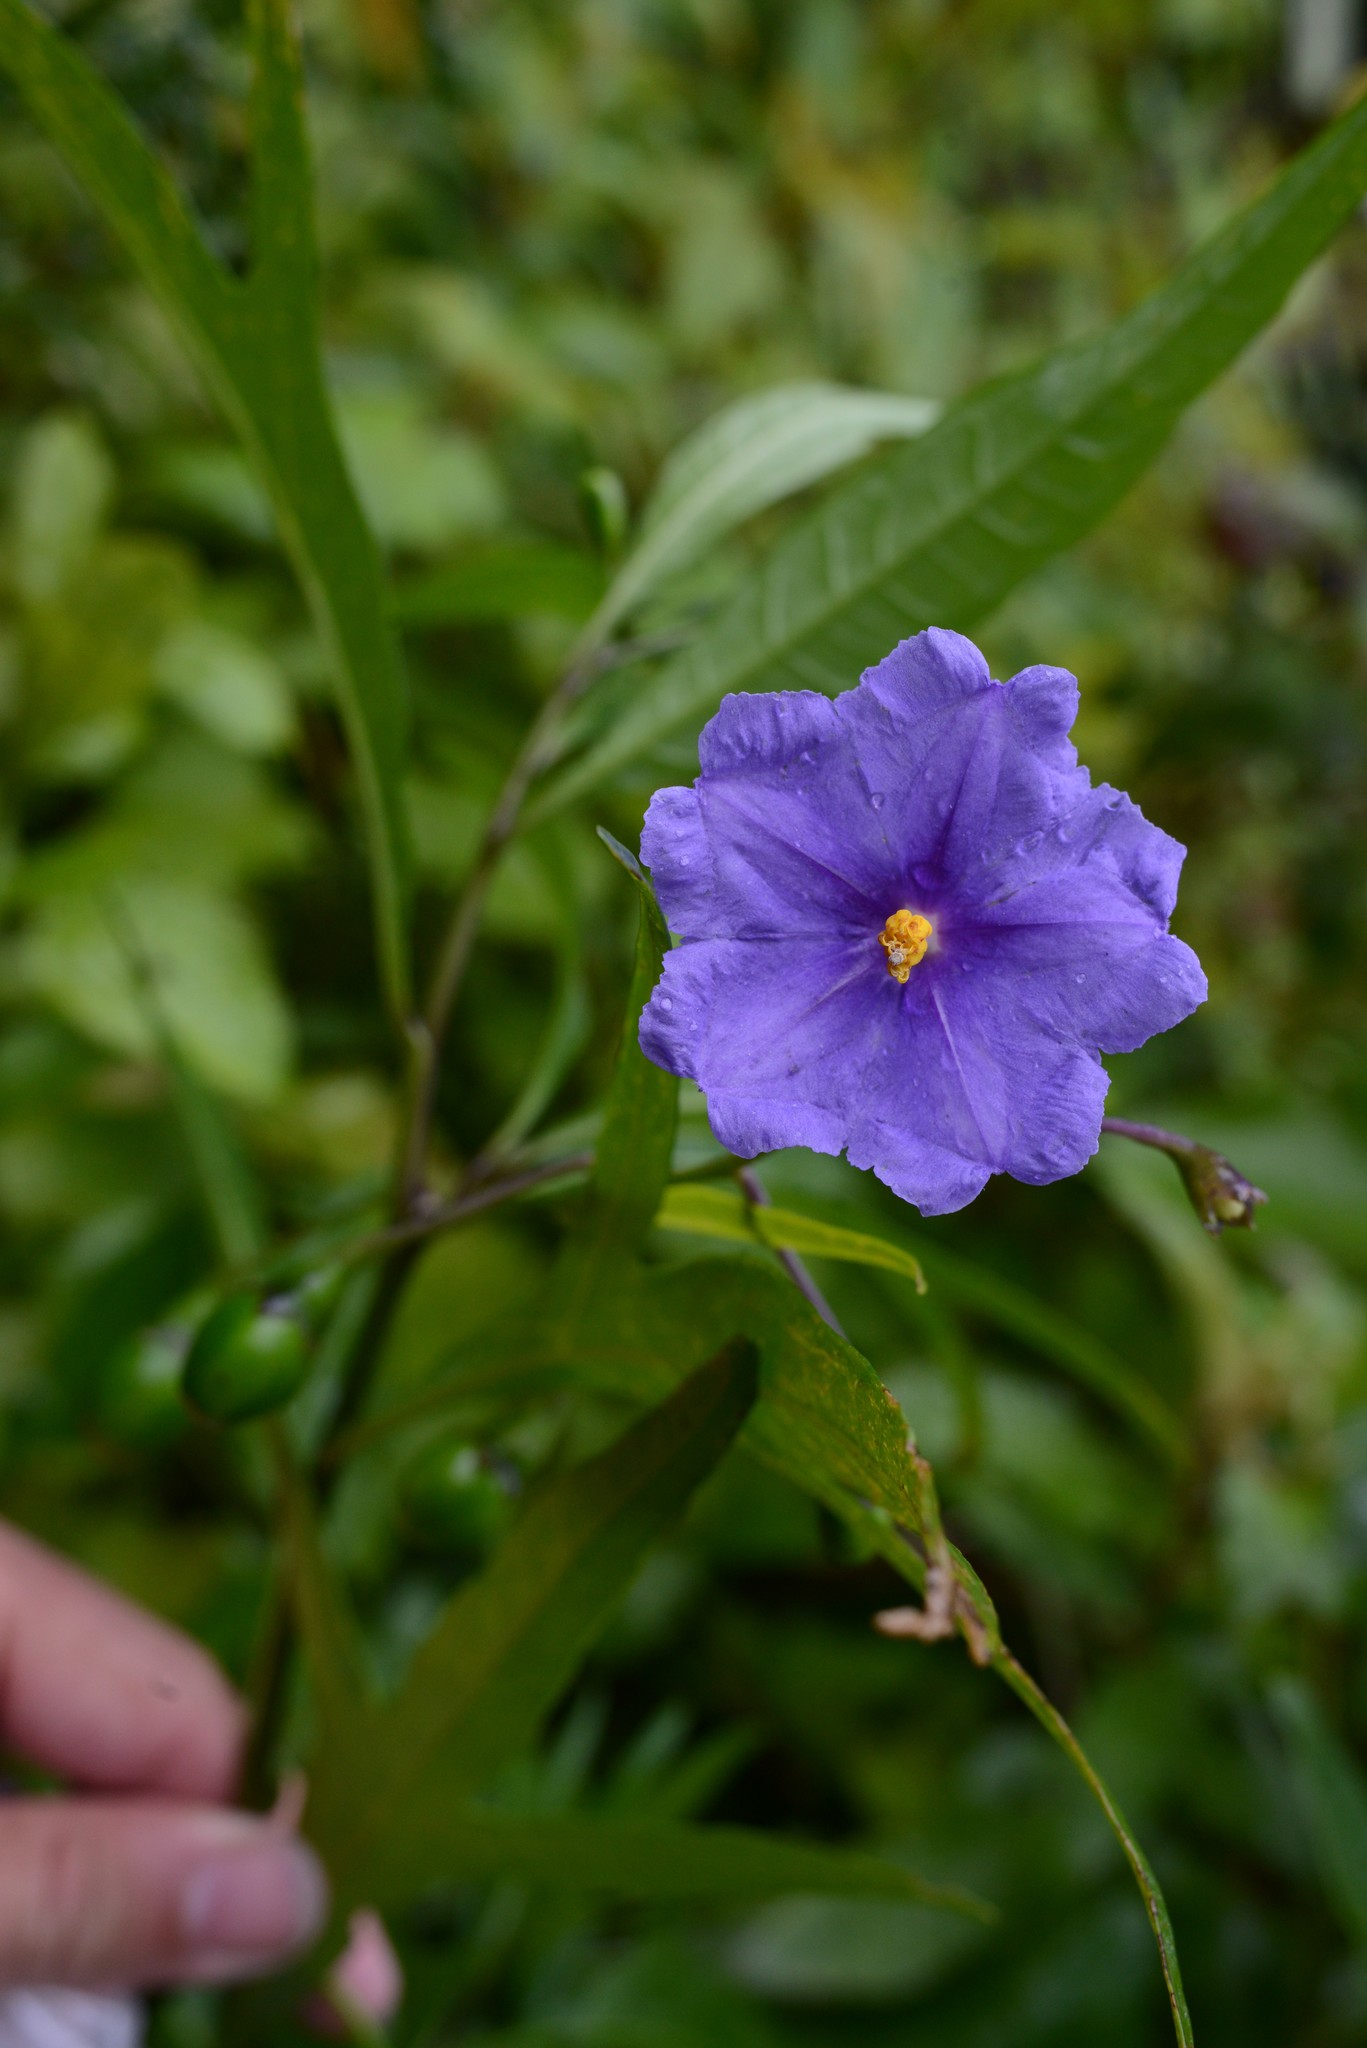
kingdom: Plantae
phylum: Tracheophyta
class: Magnoliopsida
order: Solanales
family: Solanaceae
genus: Solanum
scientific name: Solanum laciniatum
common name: Kangaroo-apple
